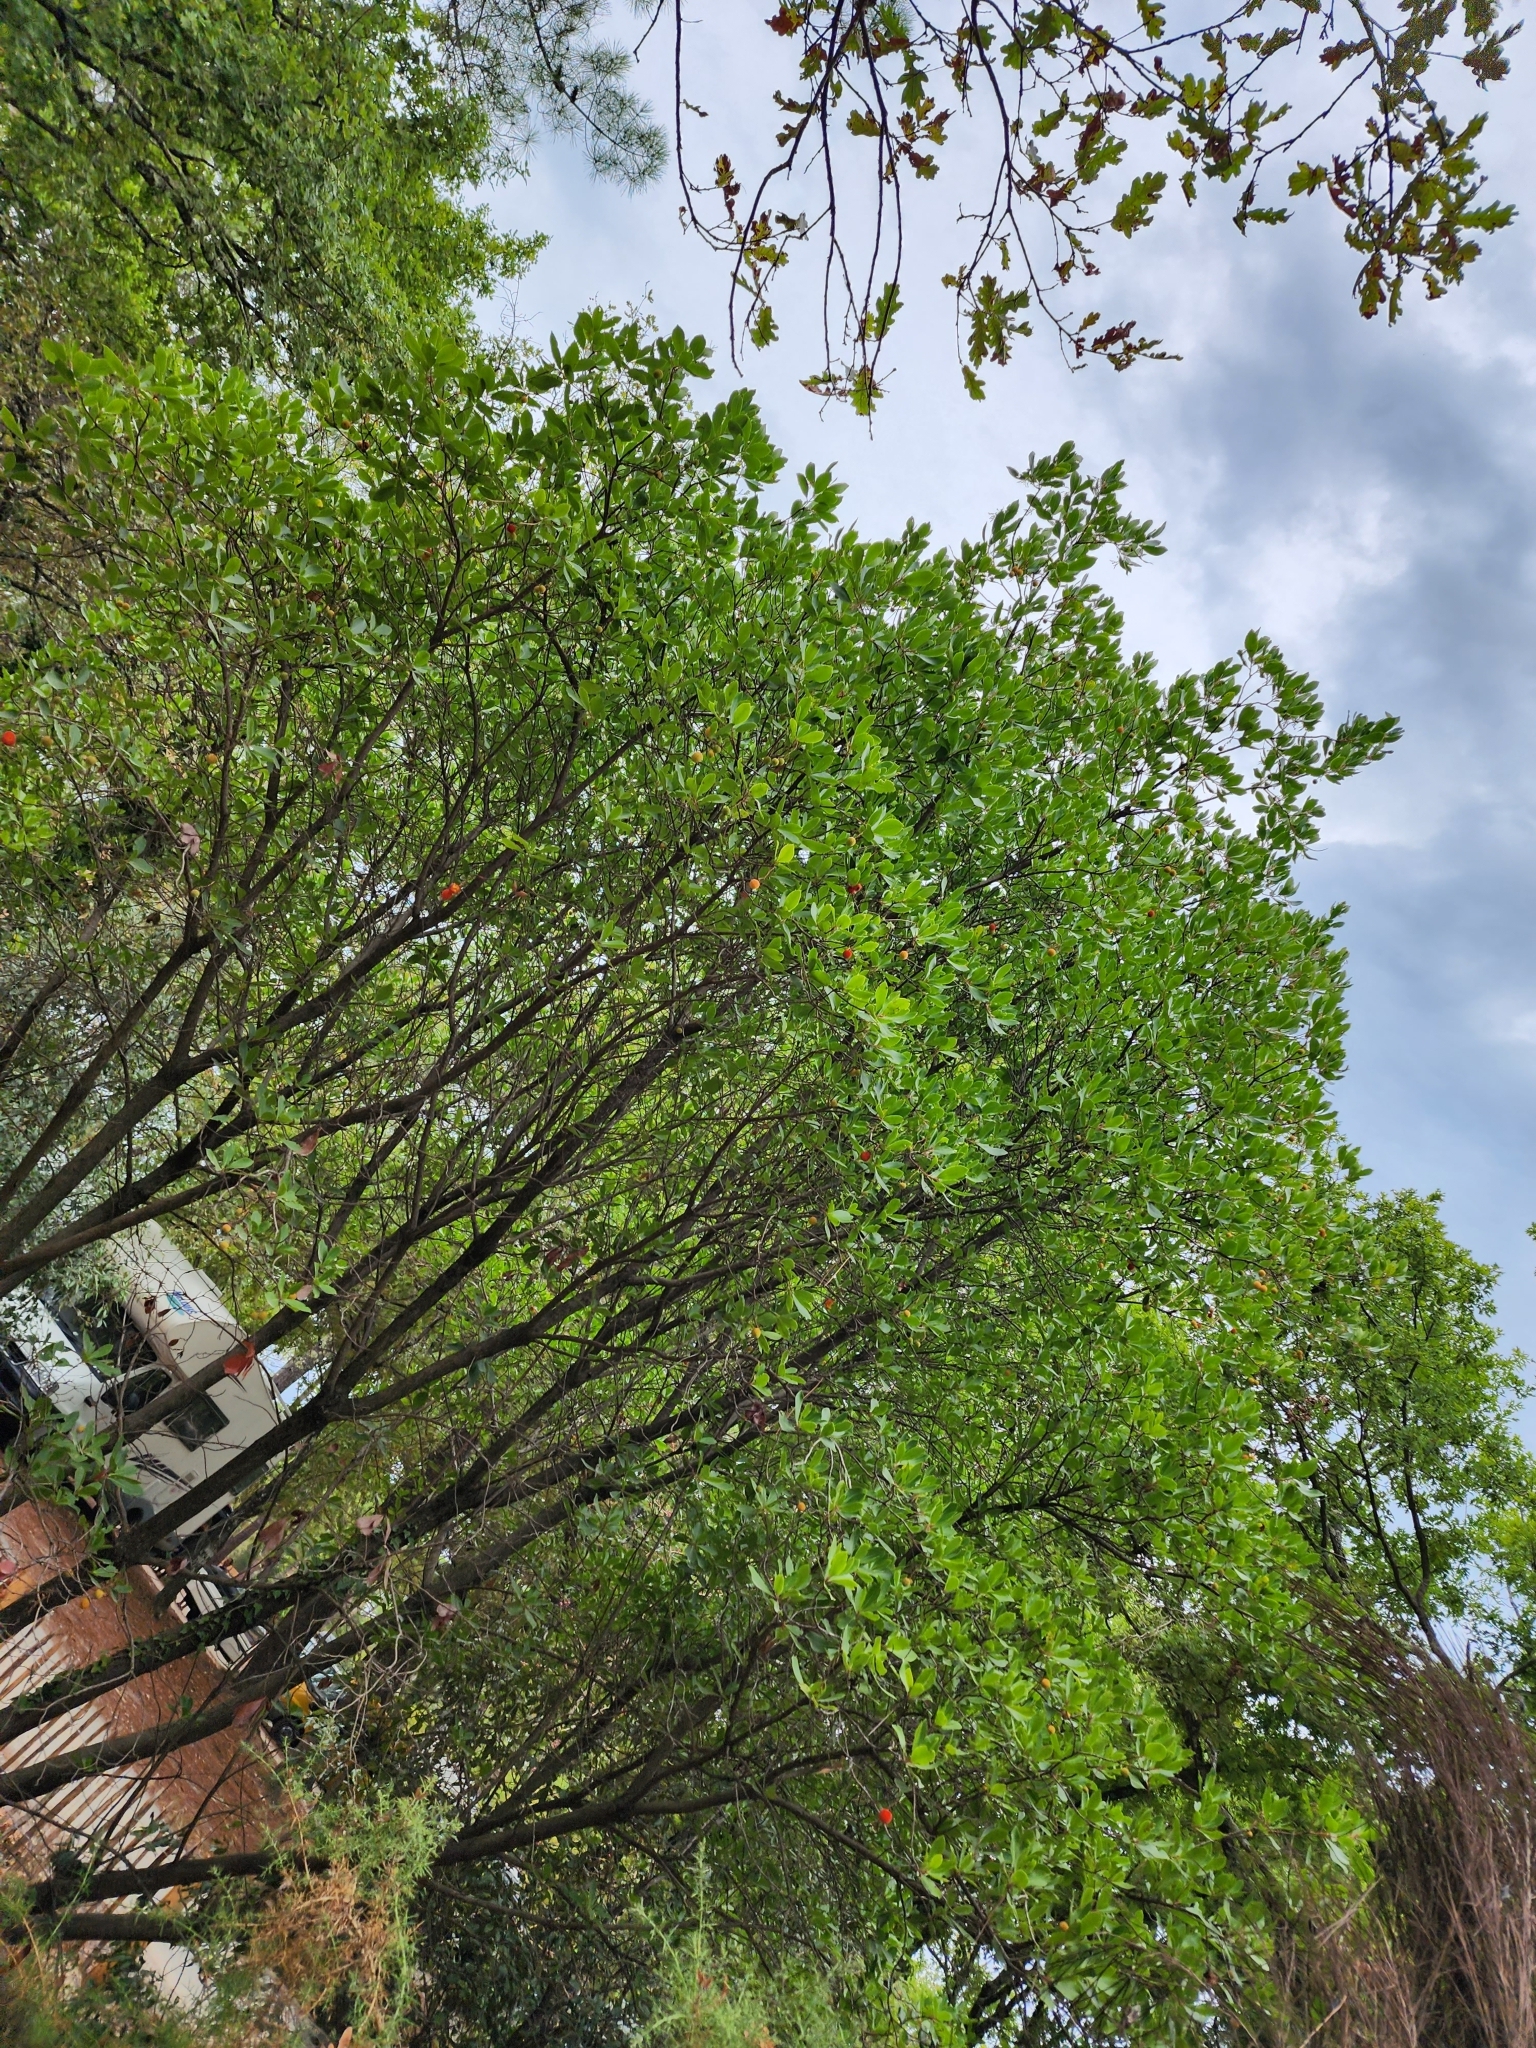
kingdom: Plantae
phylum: Tracheophyta
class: Magnoliopsida
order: Ericales
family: Ericaceae
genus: Arbutus
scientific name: Arbutus unedo
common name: Strawberry-tree
